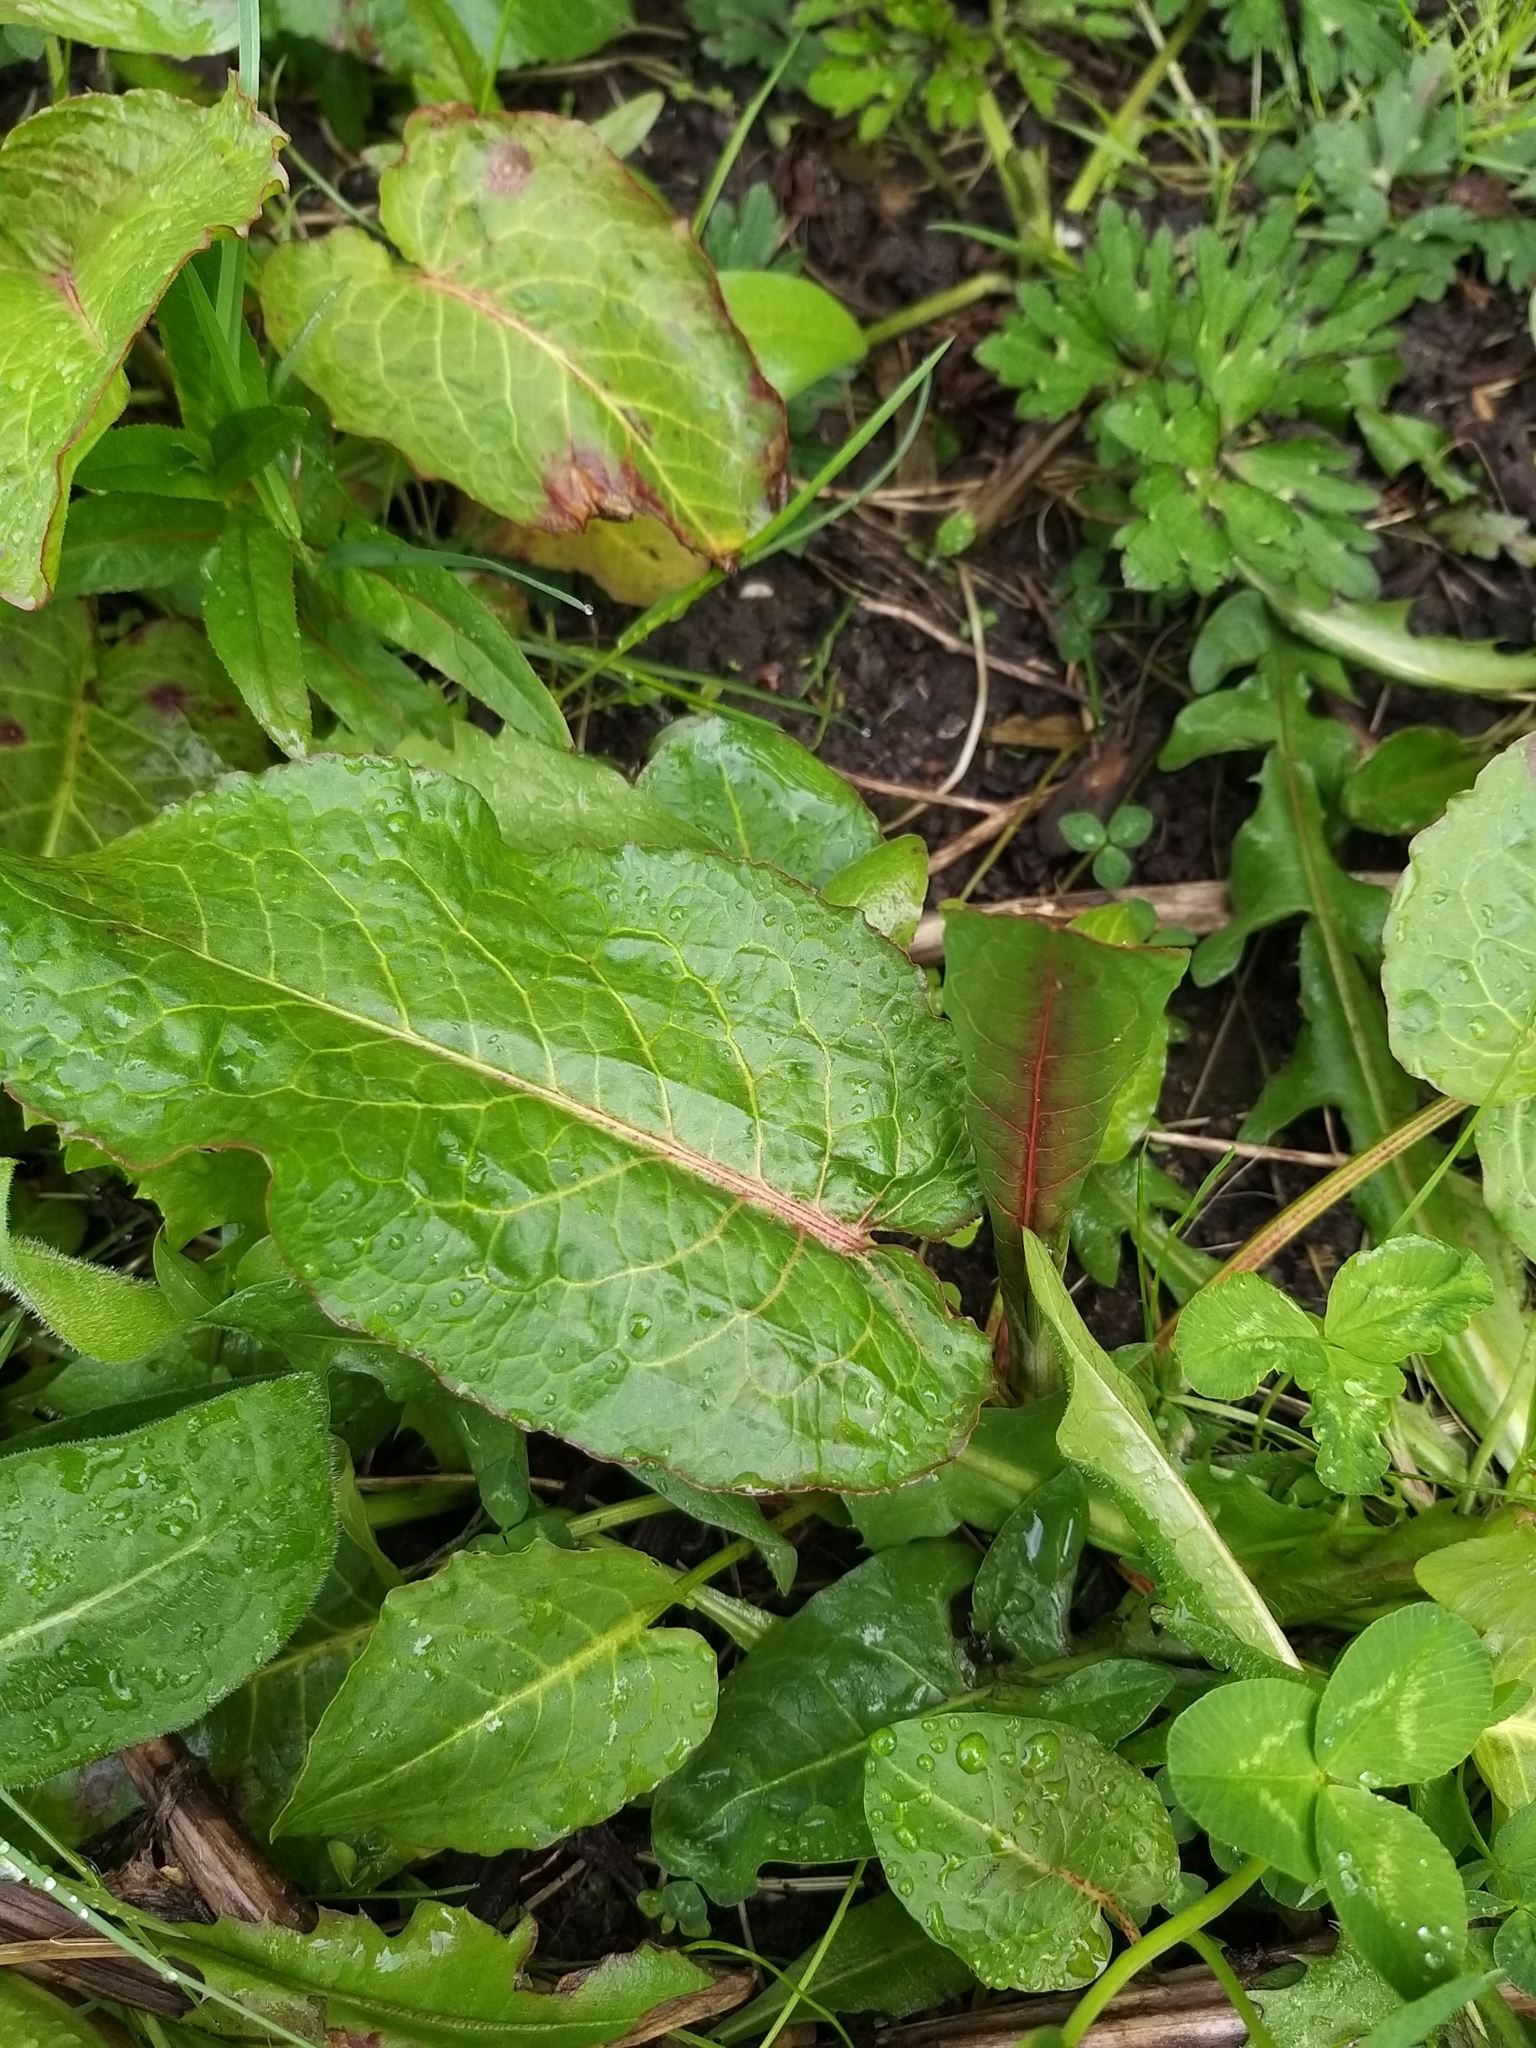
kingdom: Plantae
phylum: Tracheophyta
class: Magnoliopsida
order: Caryophyllales
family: Polygonaceae
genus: Rumex
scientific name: Rumex obtusifolius
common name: Bitter dock
